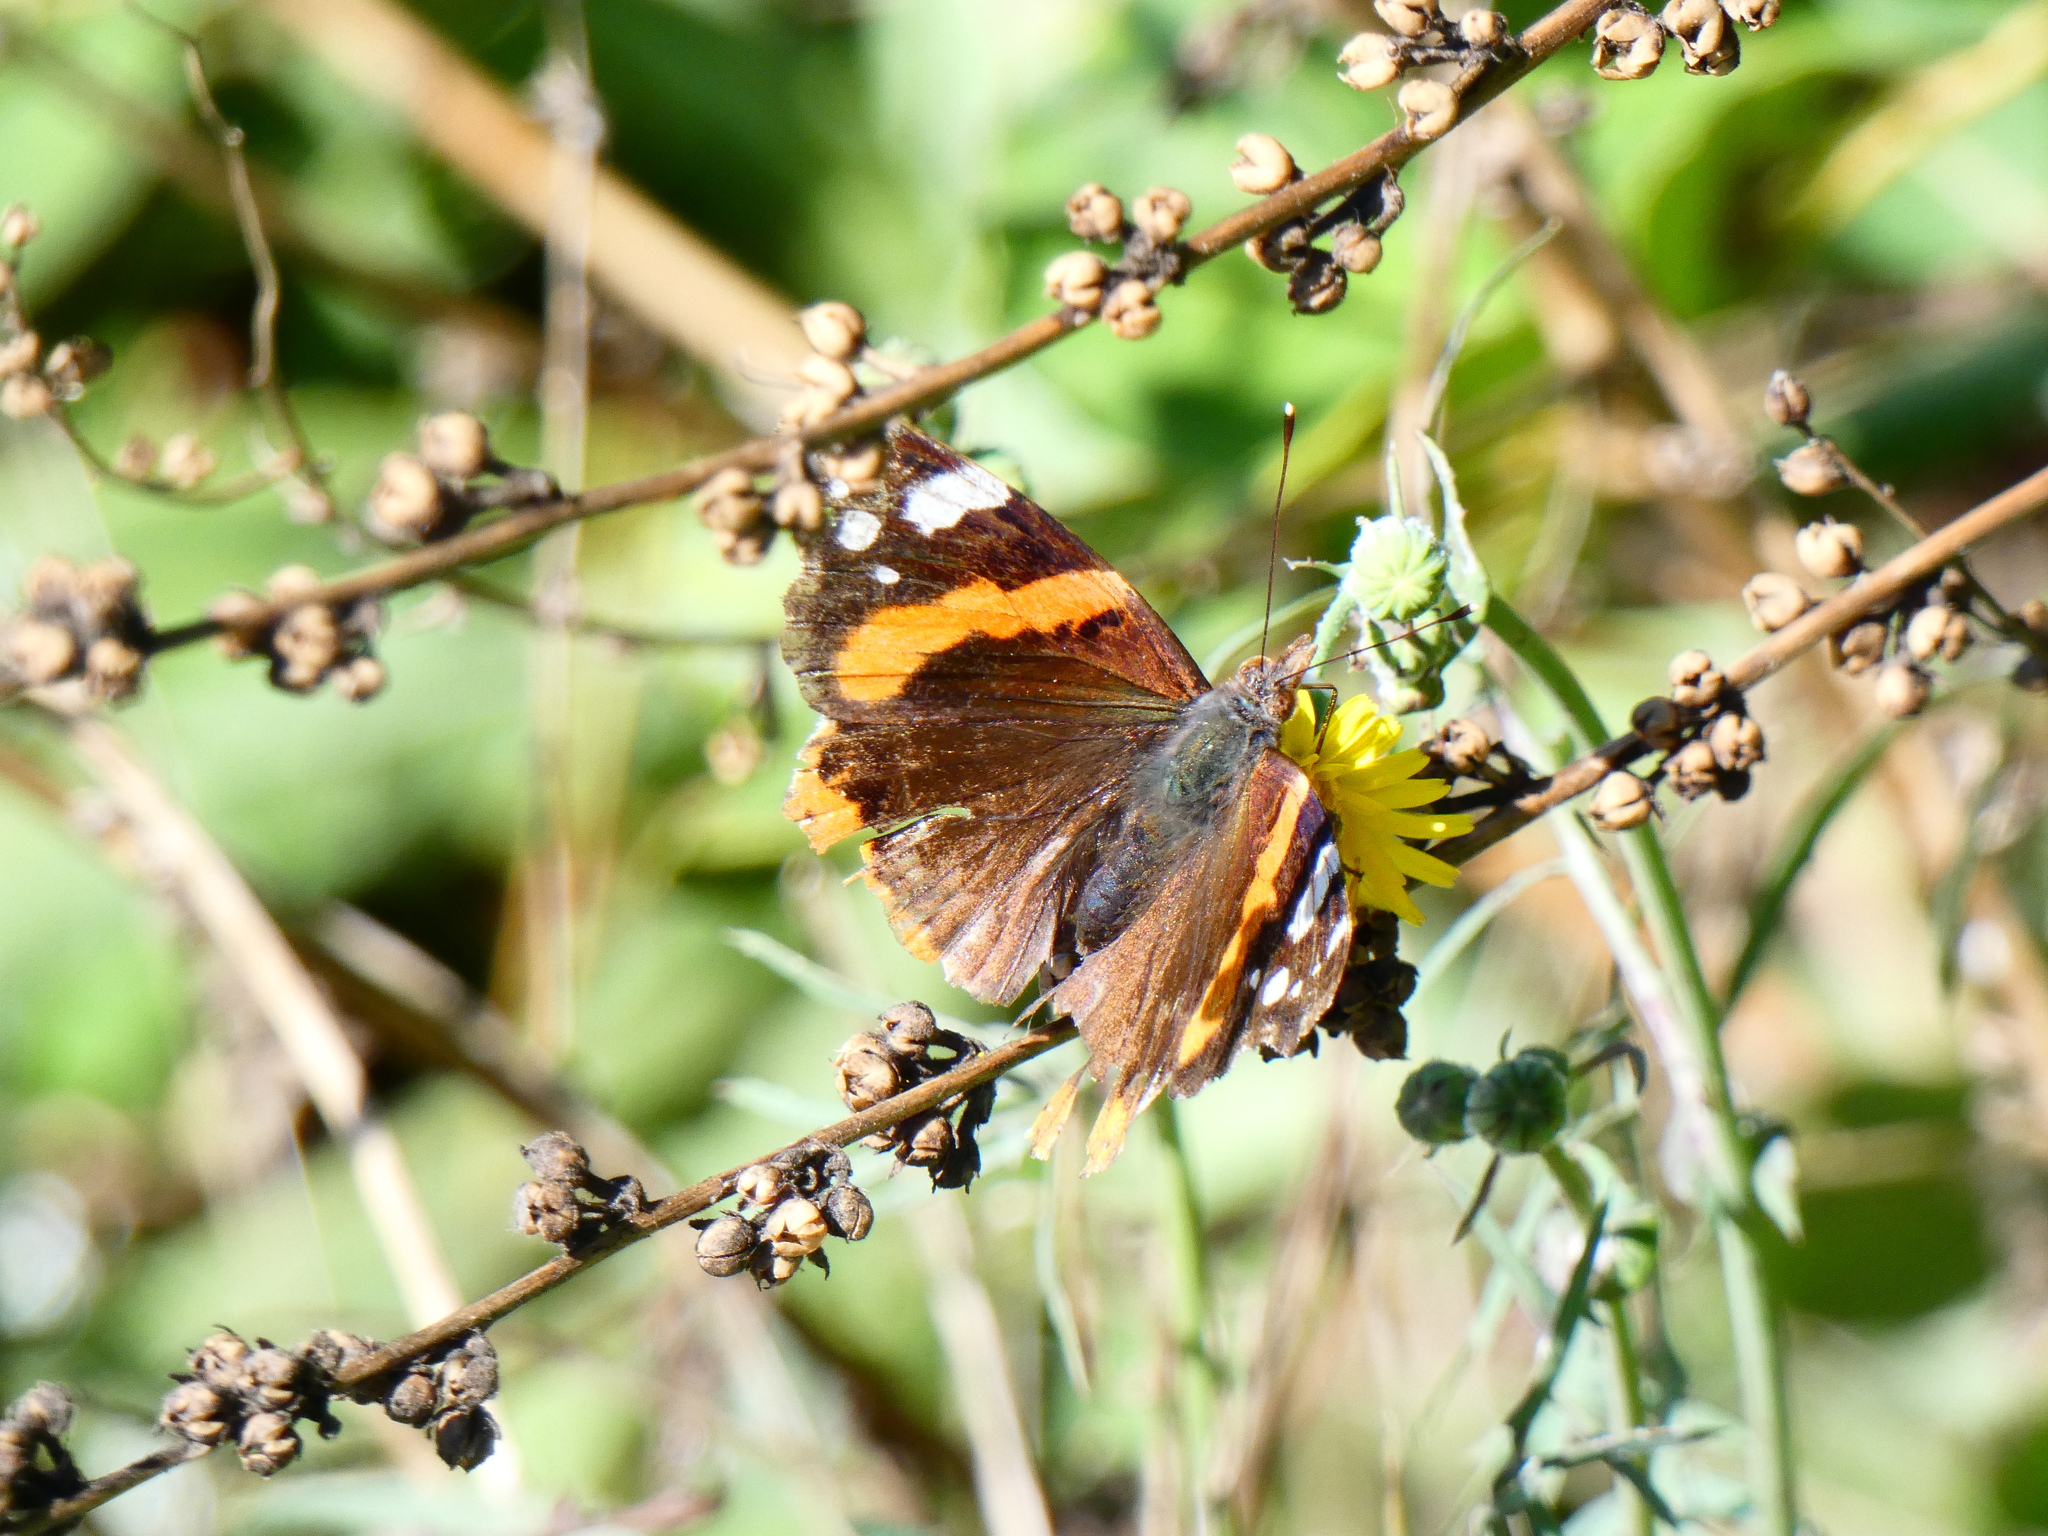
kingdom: Animalia
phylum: Arthropoda
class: Insecta
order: Lepidoptera
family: Nymphalidae
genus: Vanessa
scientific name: Vanessa atalanta
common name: Red admiral
